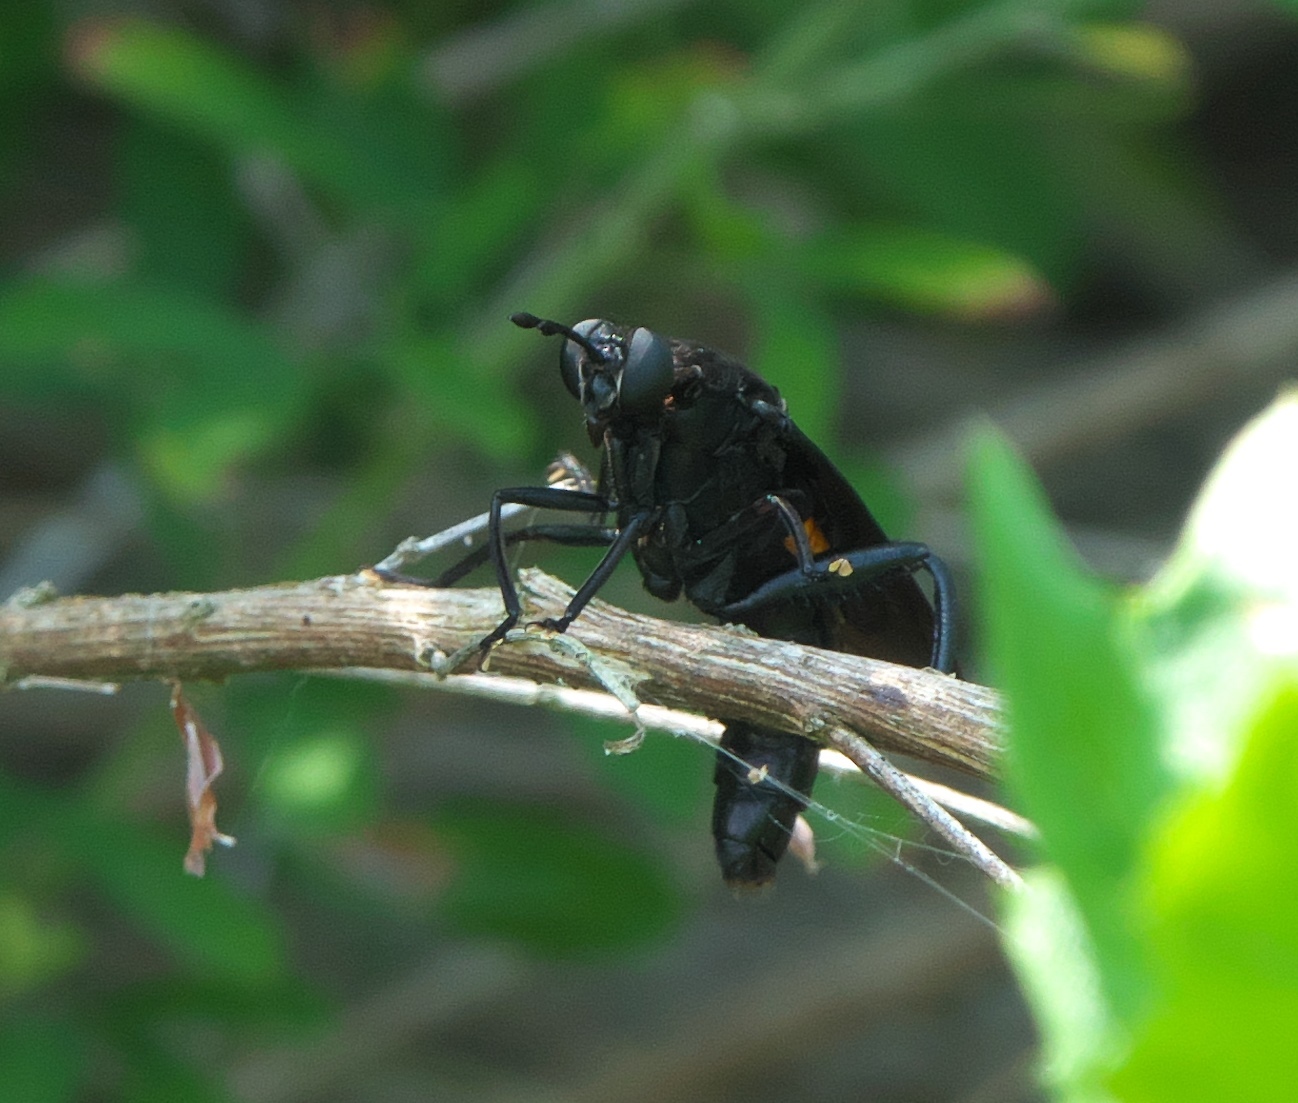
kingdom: Animalia
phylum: Arthropoda
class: Insecta
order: Diptera
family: Mydidae
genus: Mydas
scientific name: Mydas clavatus
